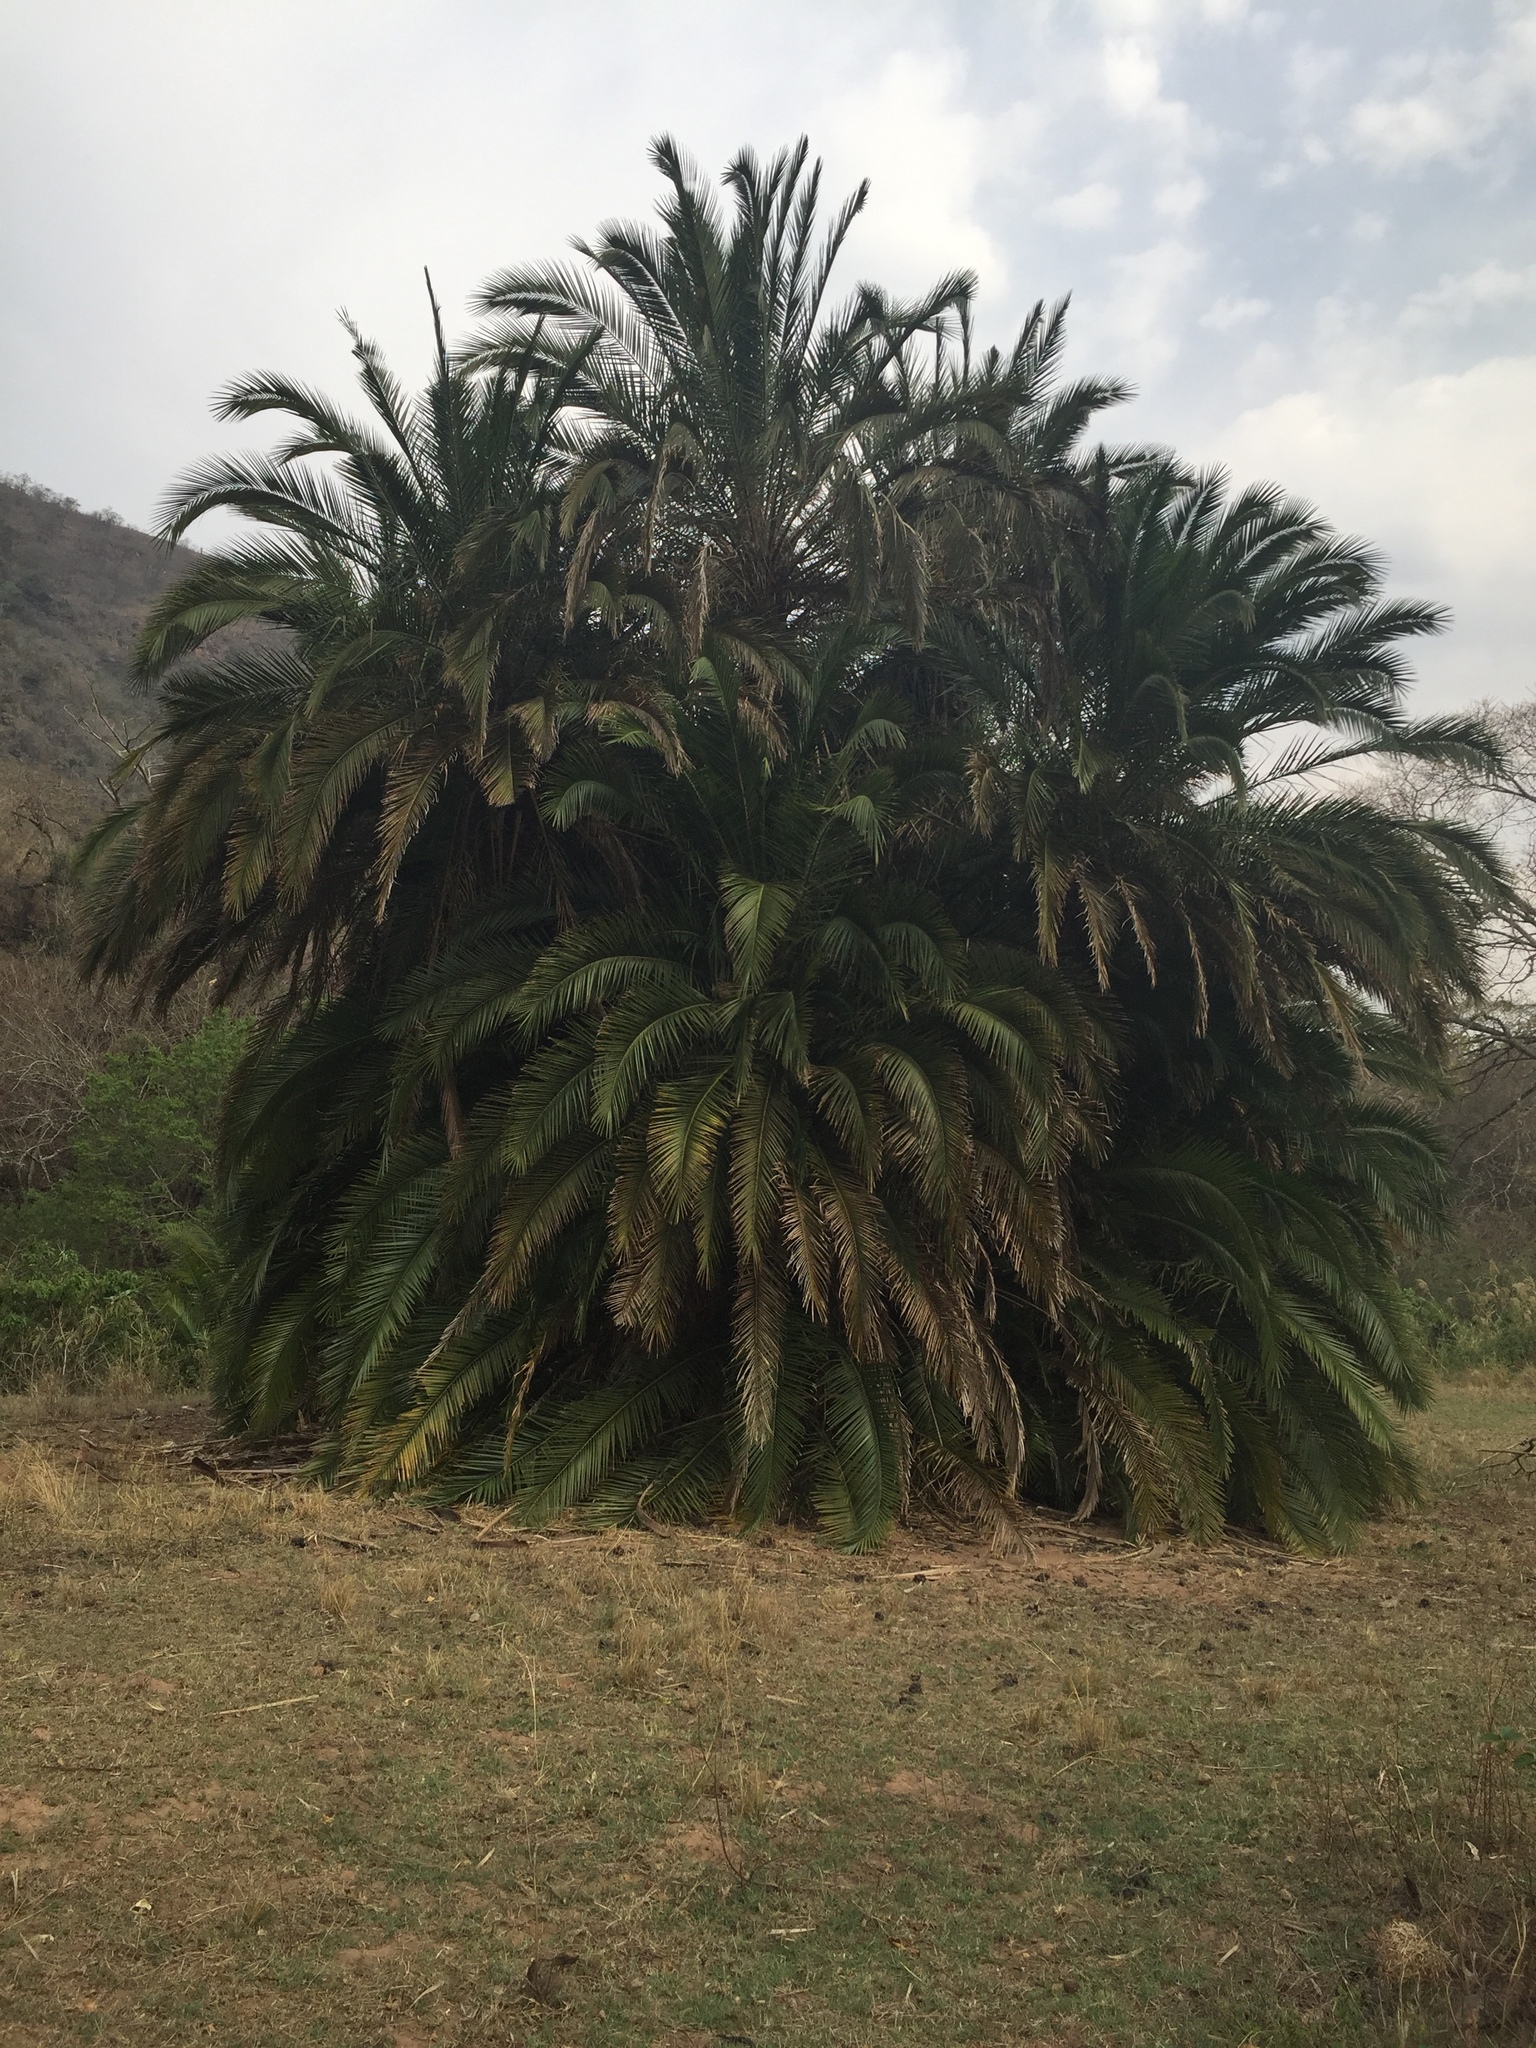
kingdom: Plantae
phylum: Tracheophyta
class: Liliopsida
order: Arecales
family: Arecaceae
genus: Phoenix
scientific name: Phoenix reclinata
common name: Senegal date palm
